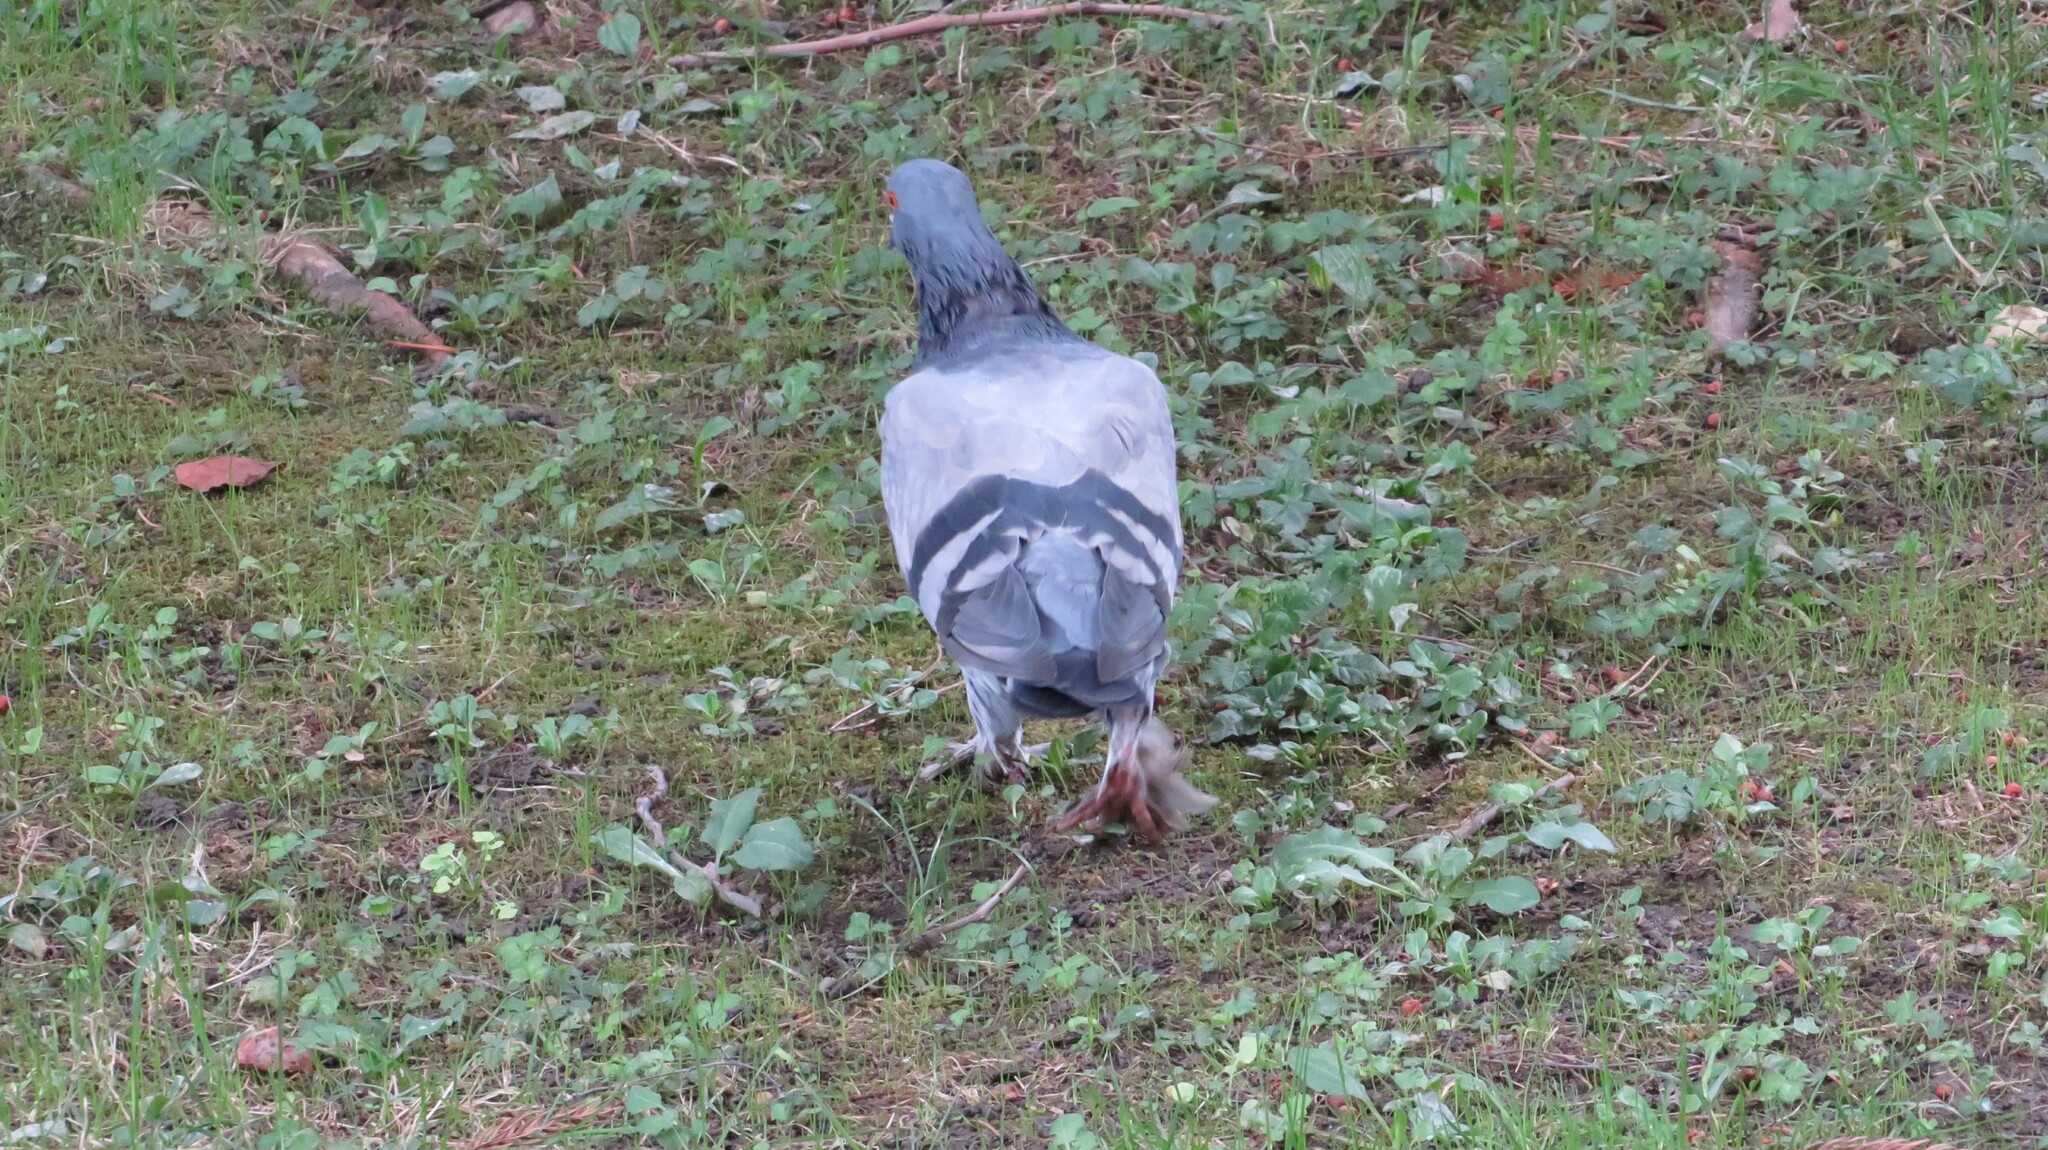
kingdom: Animalia
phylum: Chordata
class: Aves
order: Columbiformes
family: Columbidae
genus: Columba
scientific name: Columba livia
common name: Rock pigeon
